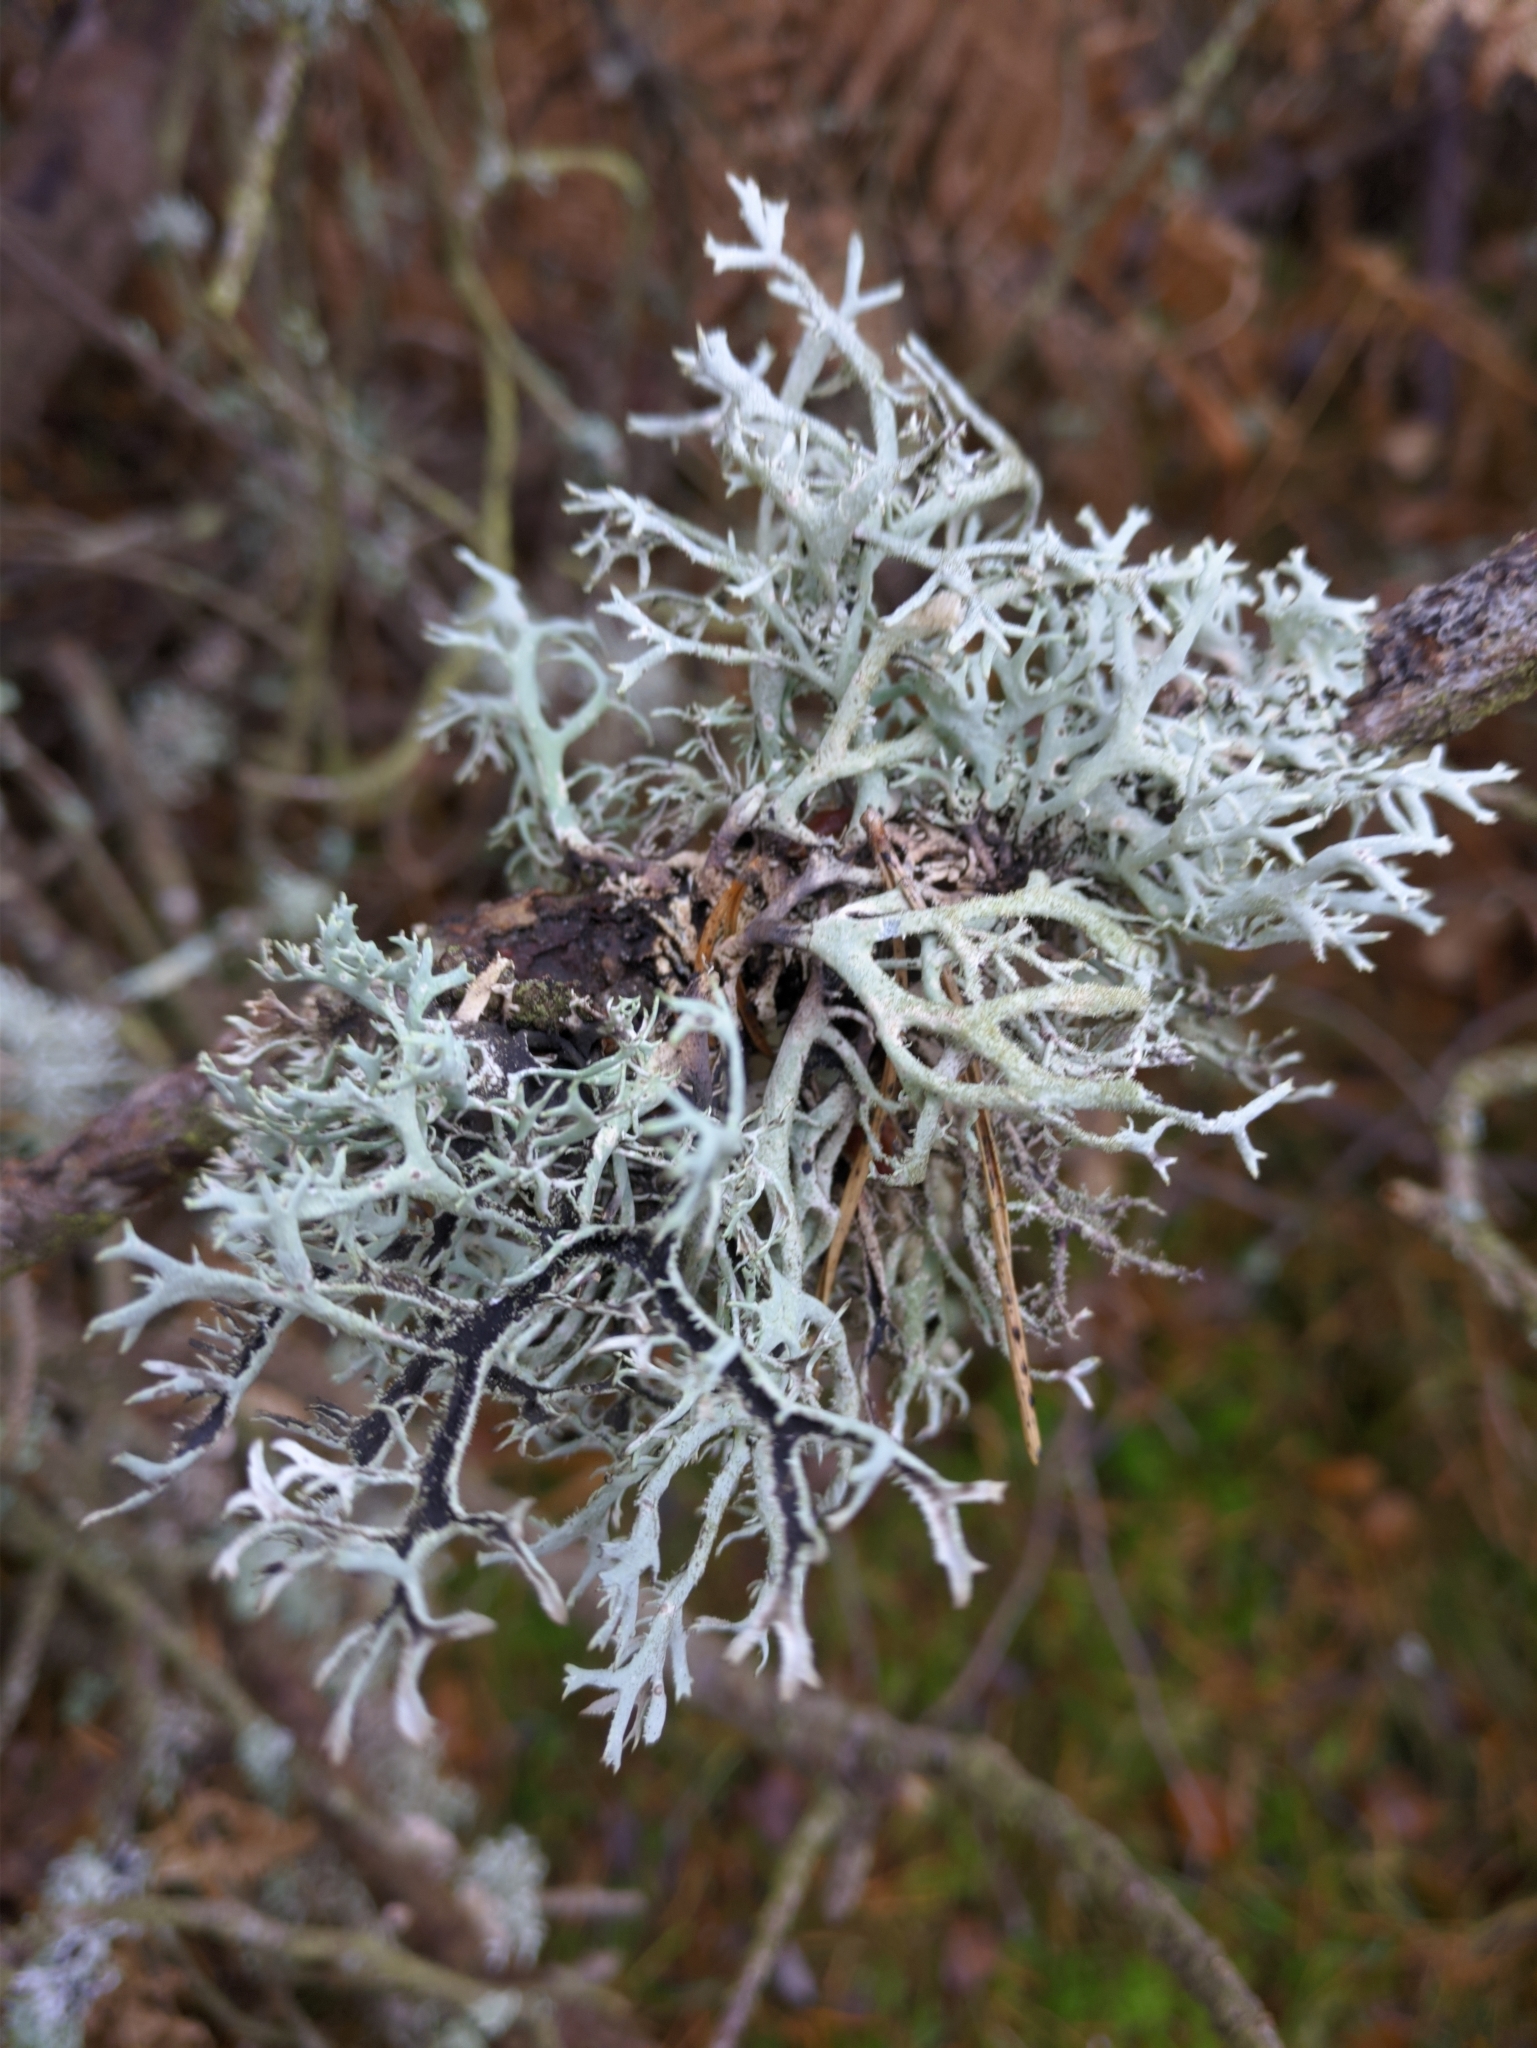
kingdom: Fungi
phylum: Ascomycota
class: Lecanoromycetes
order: Lecanorales
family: Parmeliaceae
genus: Pseudevernia
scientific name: Pseudevernia furfuracea
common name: Tree moss
